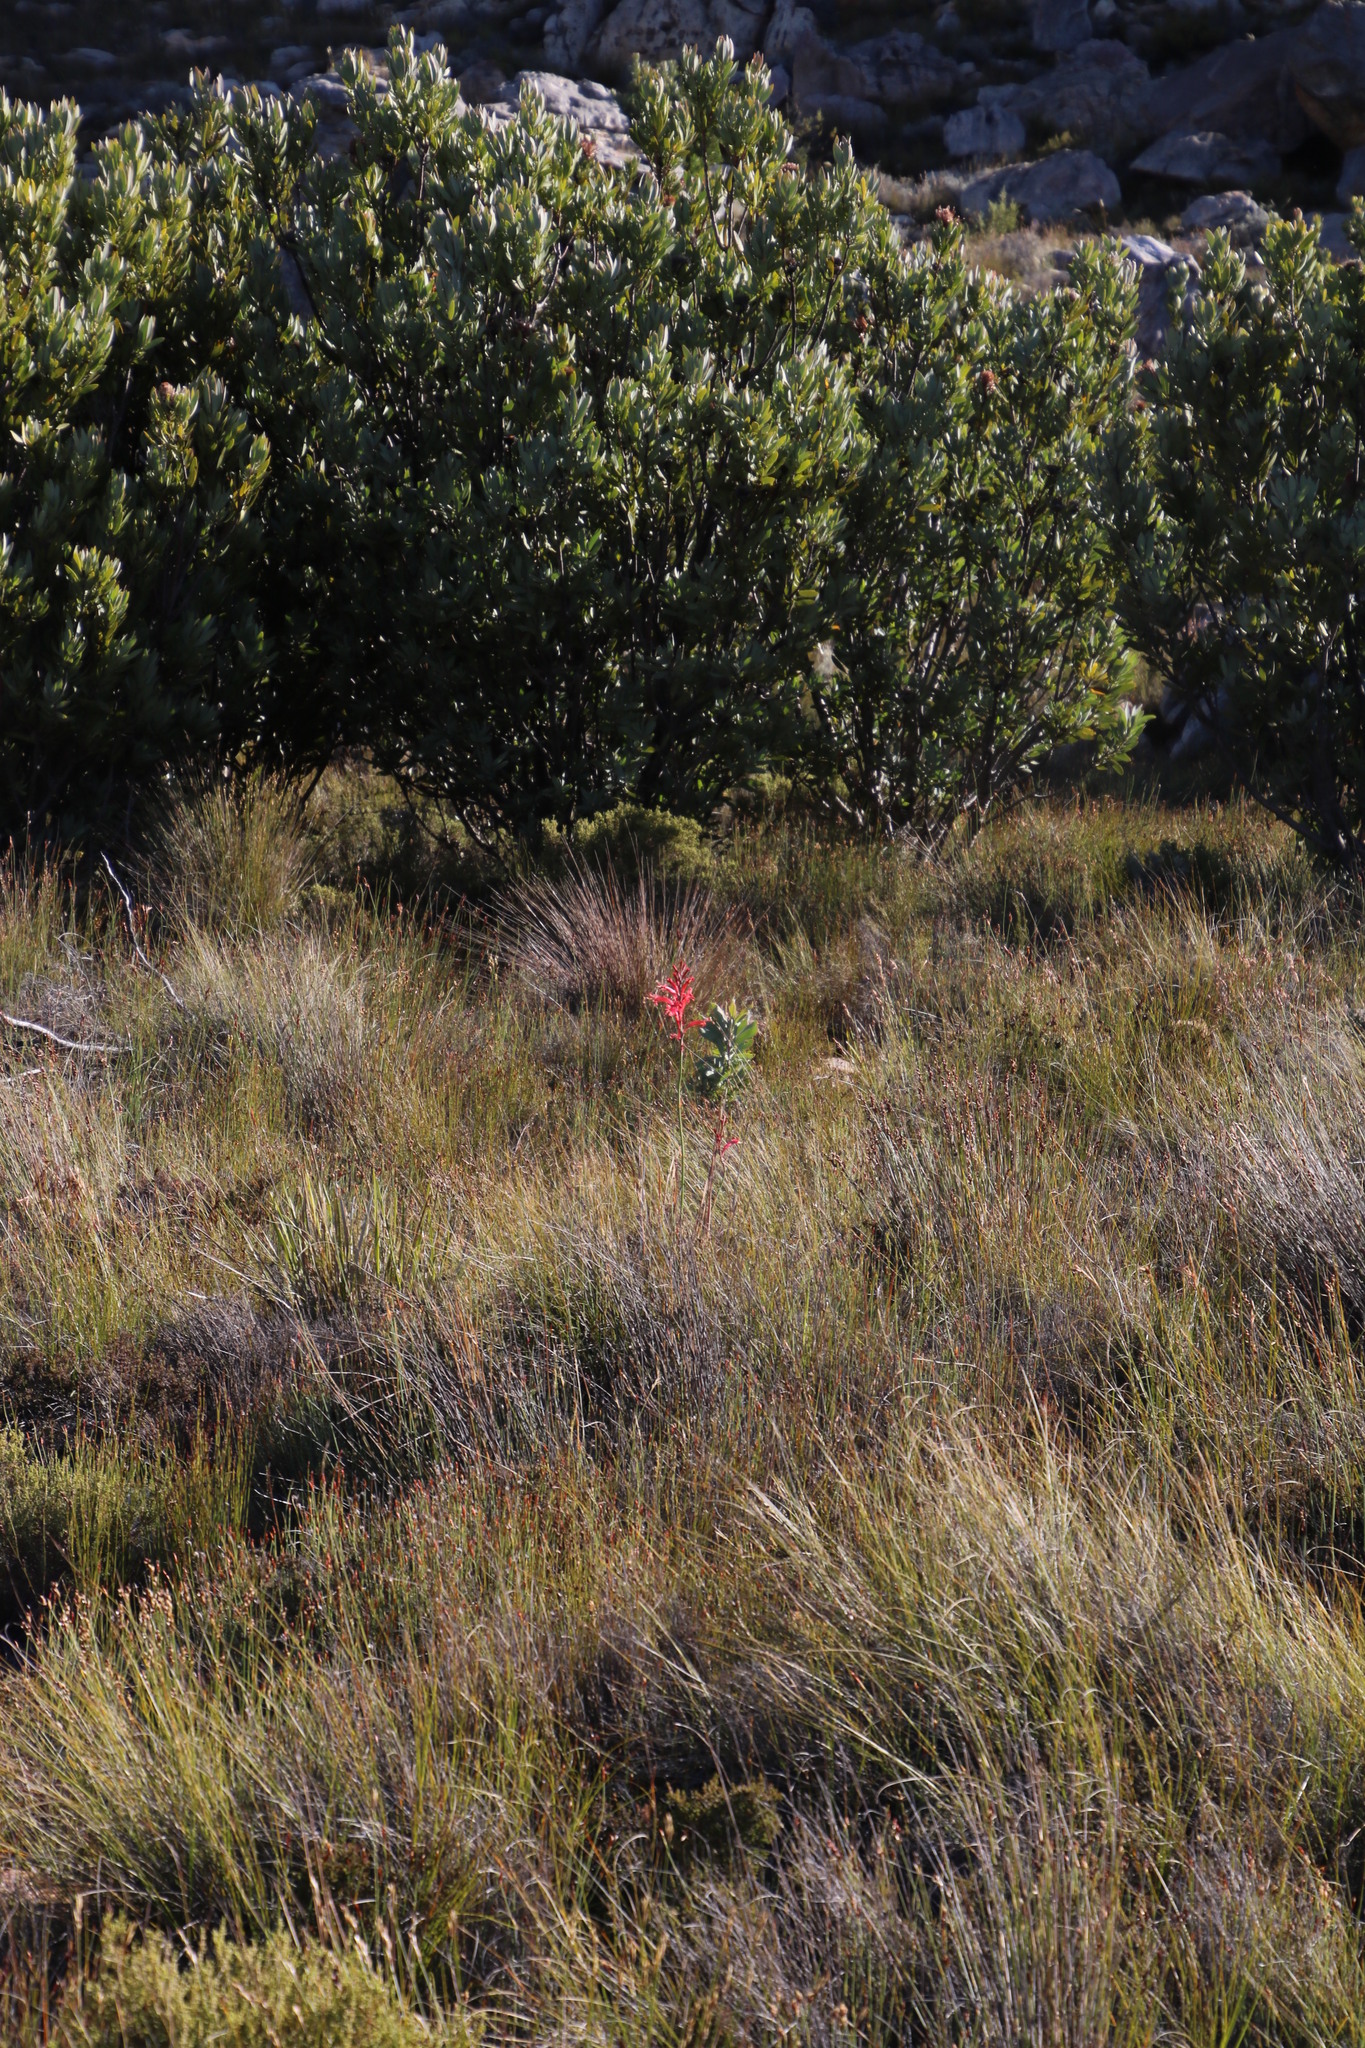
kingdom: Plantae
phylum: Tracheophyta
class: Liliopsida
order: Asparagales
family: Iridaceae
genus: Tritoniopsis
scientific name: Tritoniopsis antholyza
